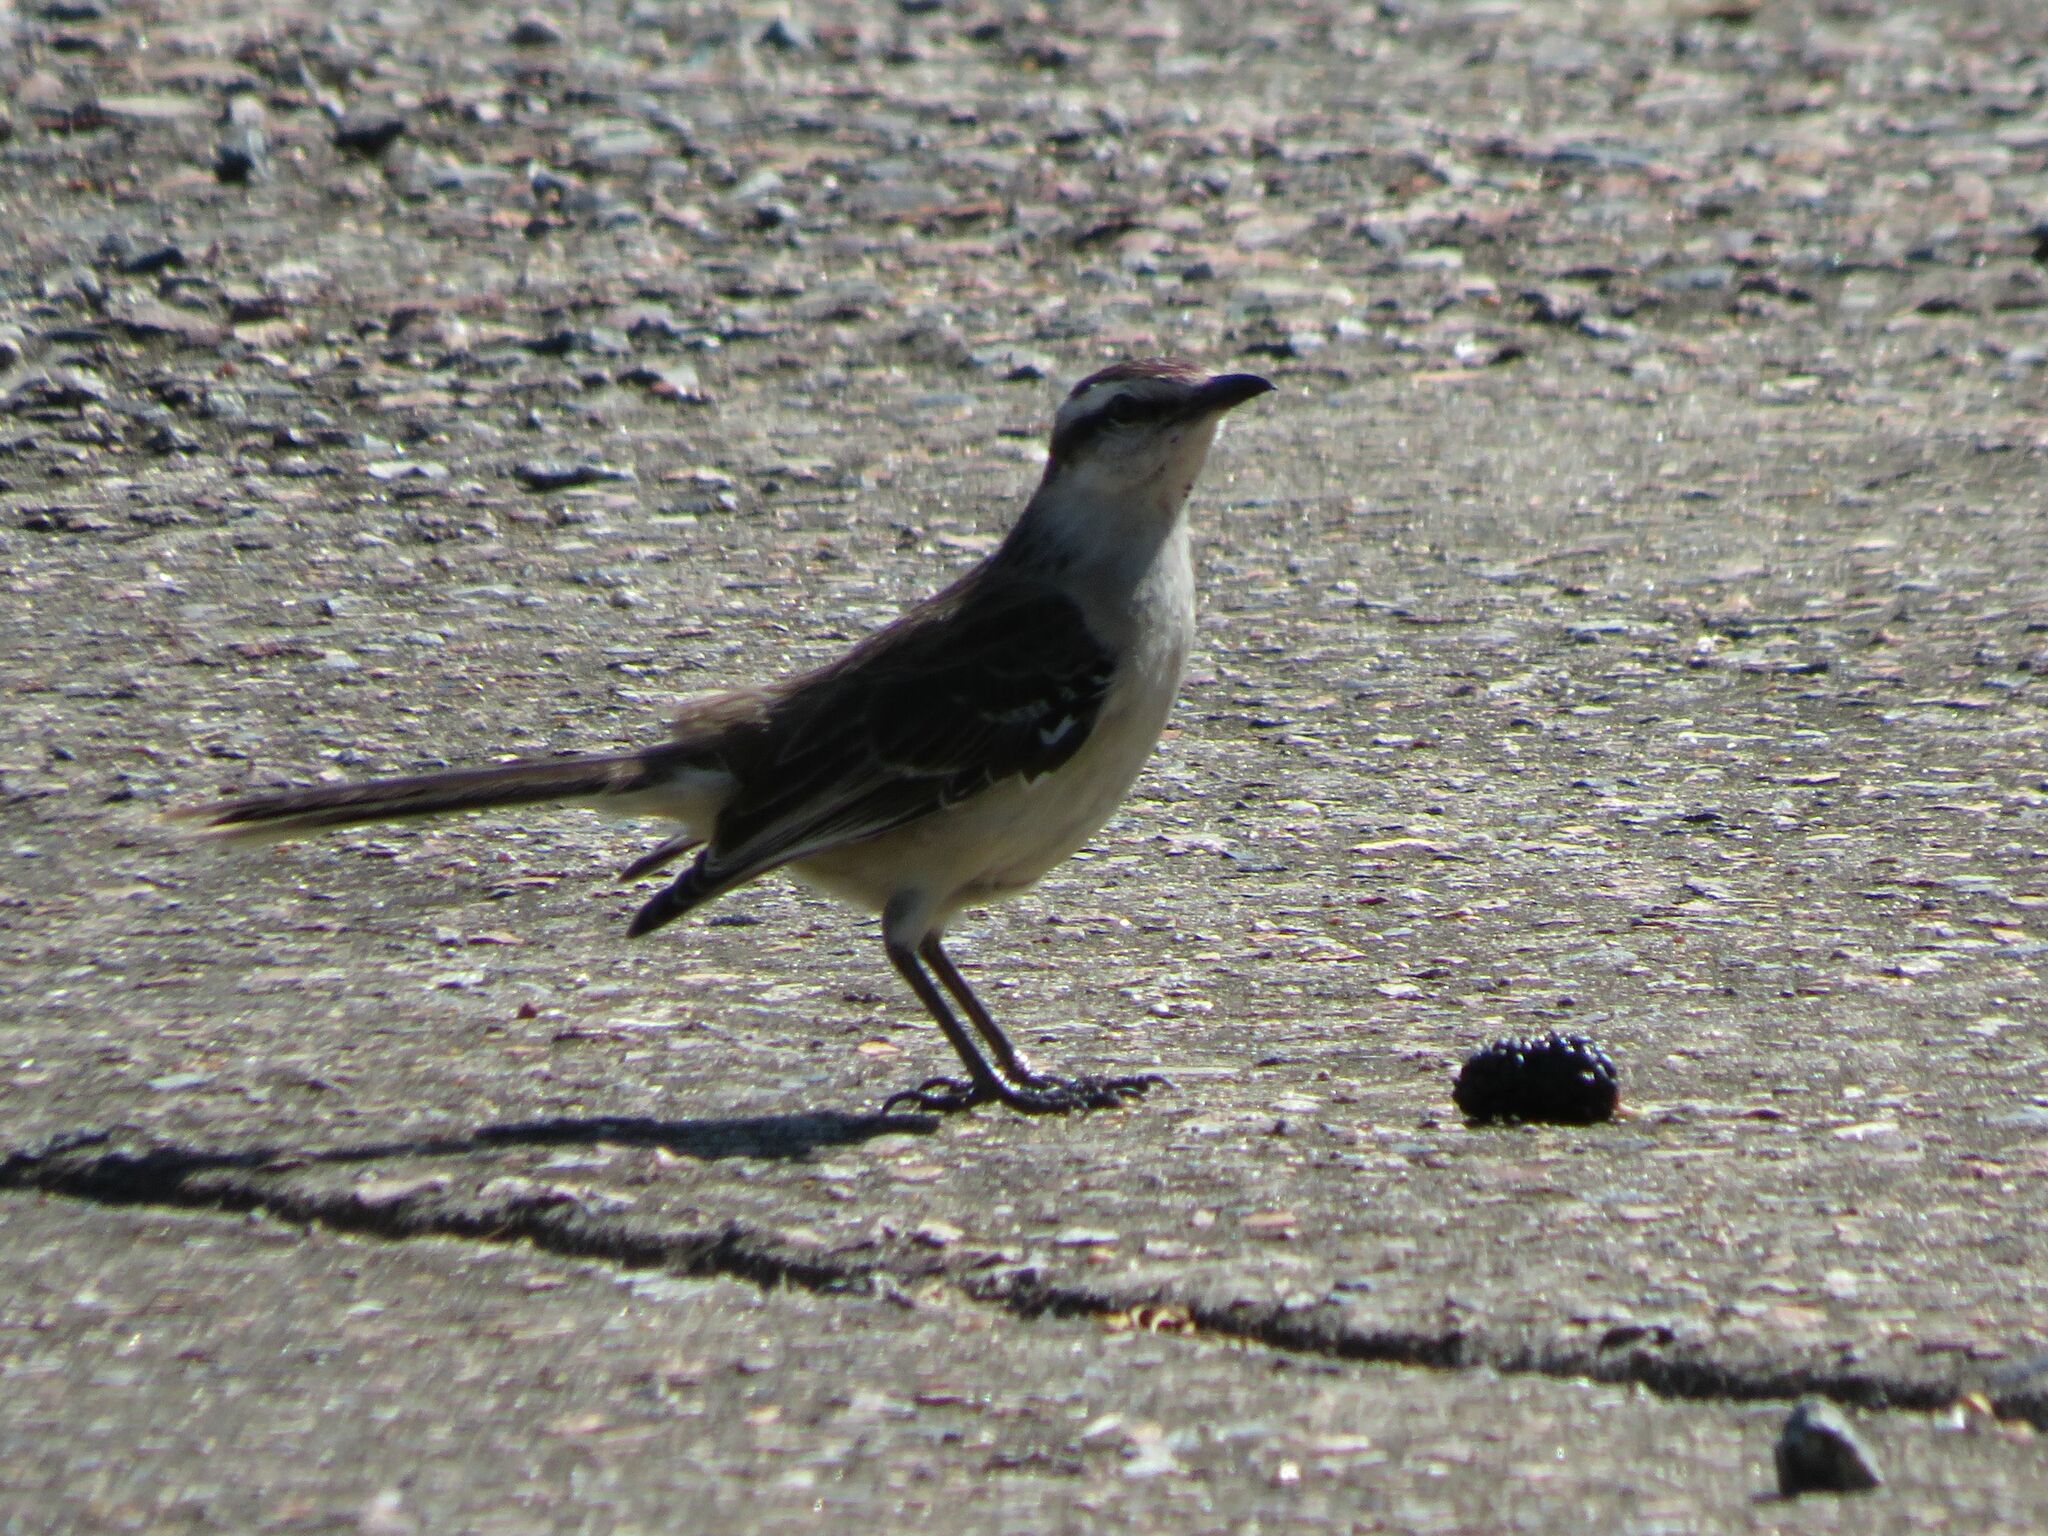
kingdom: Animalia
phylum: Chordata
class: Aves
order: Passeriformes
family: Mimidae
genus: Mimus
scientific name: Mimus saturninus
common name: Chalk-browed mockingbird
